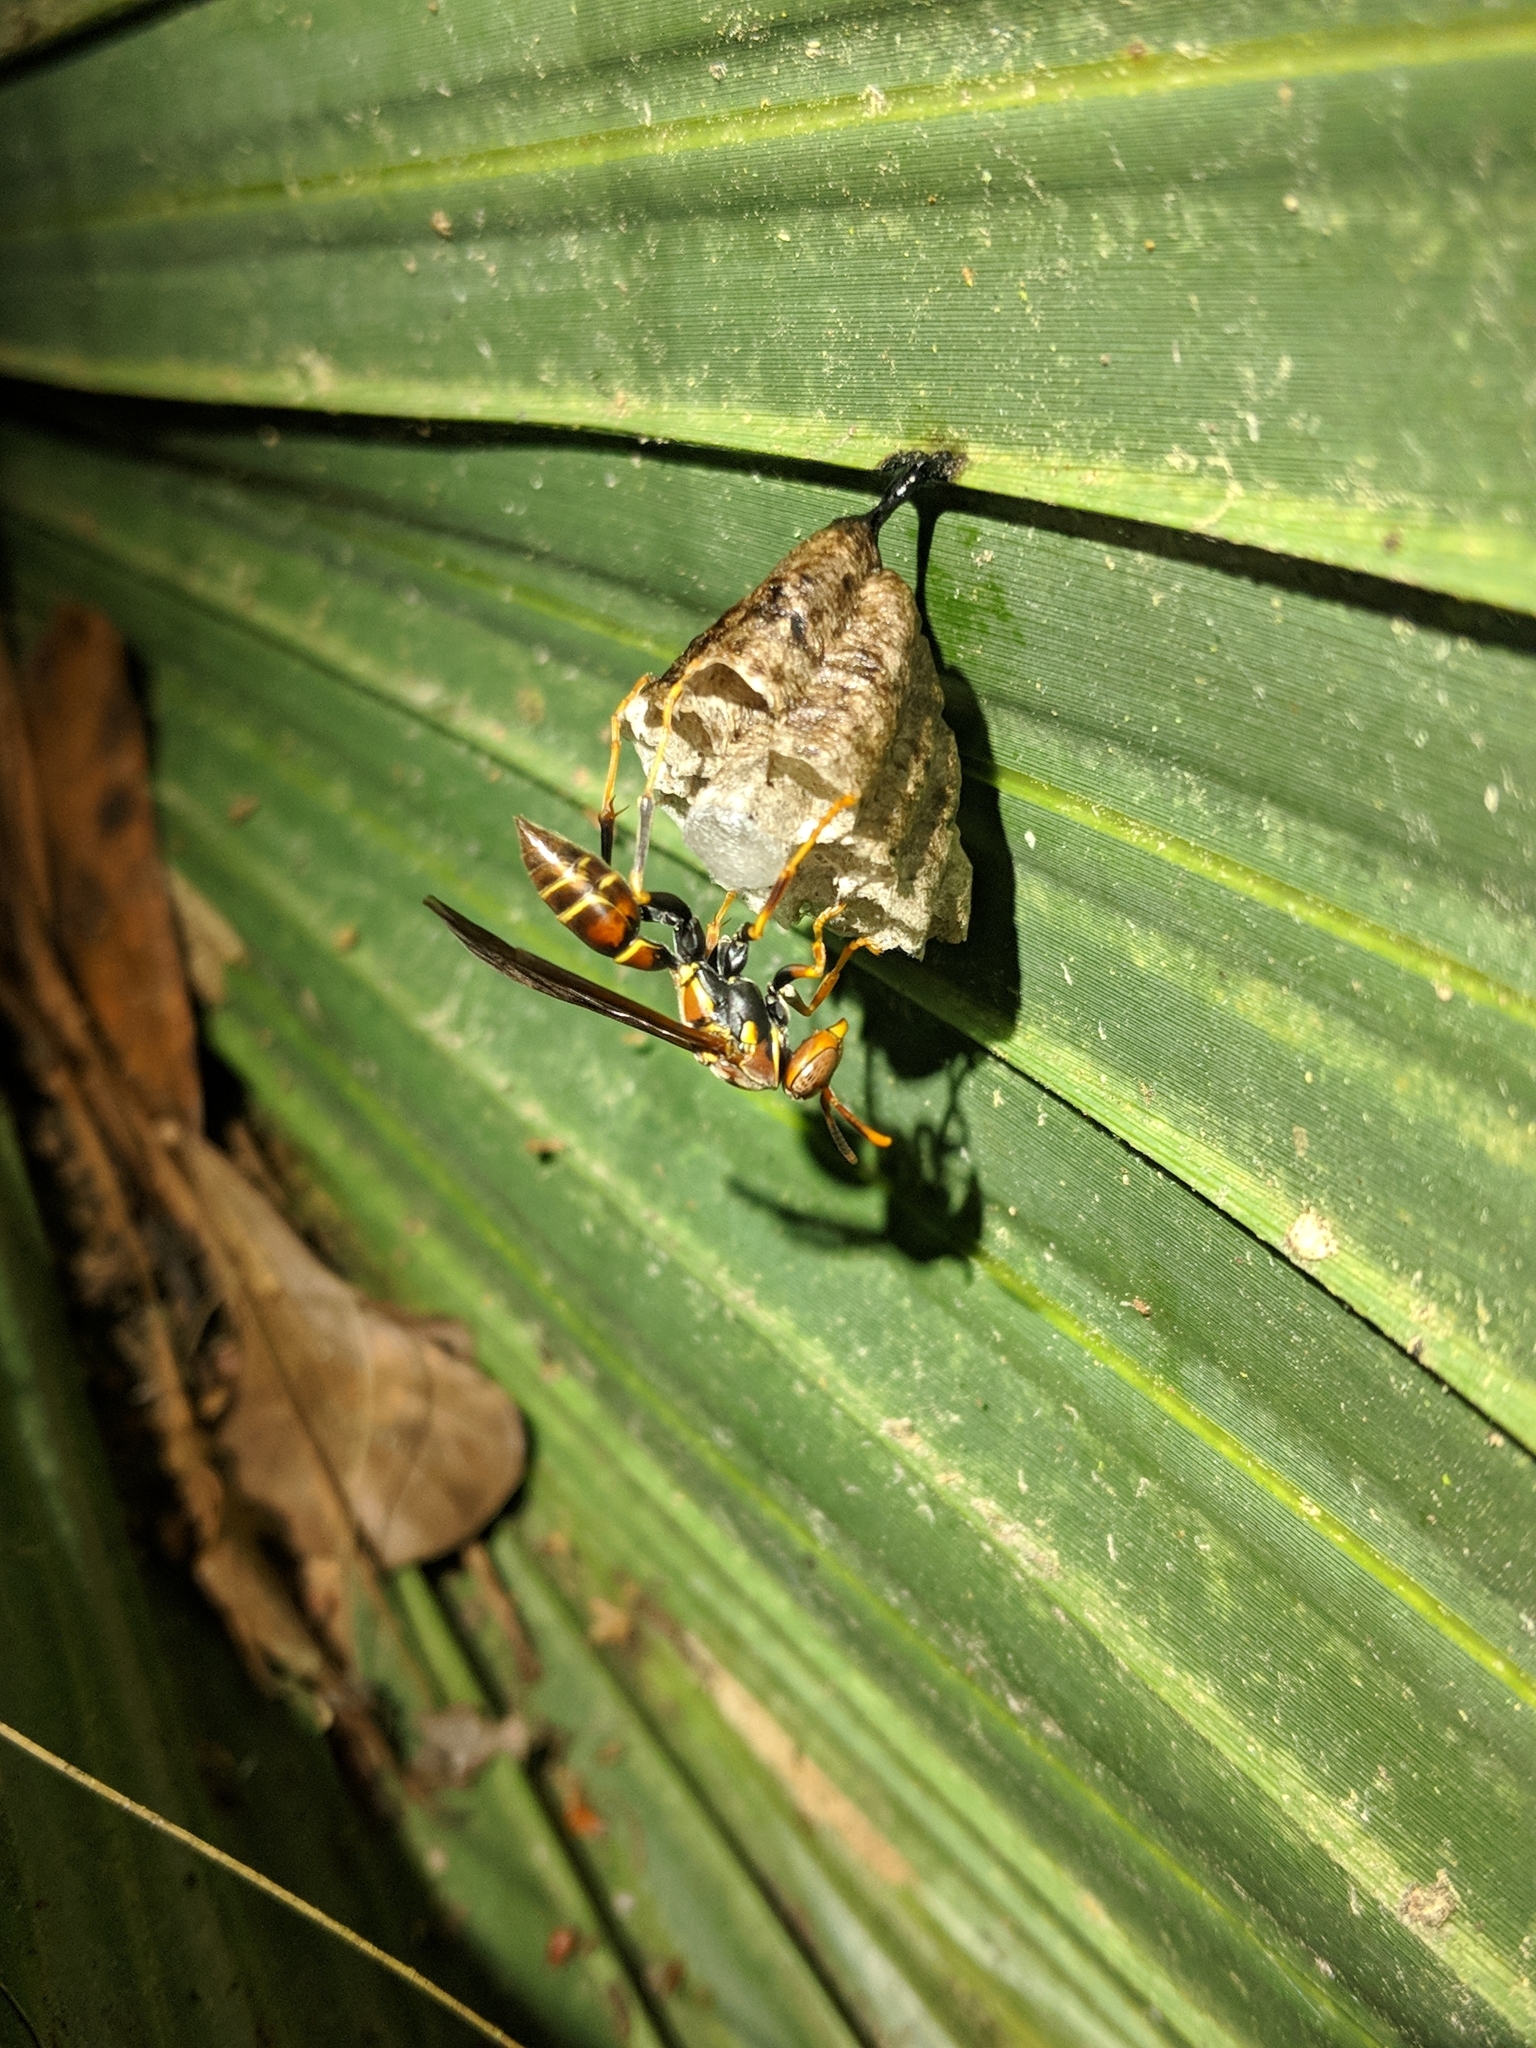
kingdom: Animalia
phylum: Arthropoda
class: Insecta
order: Hymenoptera
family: Eumenidae
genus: Polistes
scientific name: Polistes bahamensis
